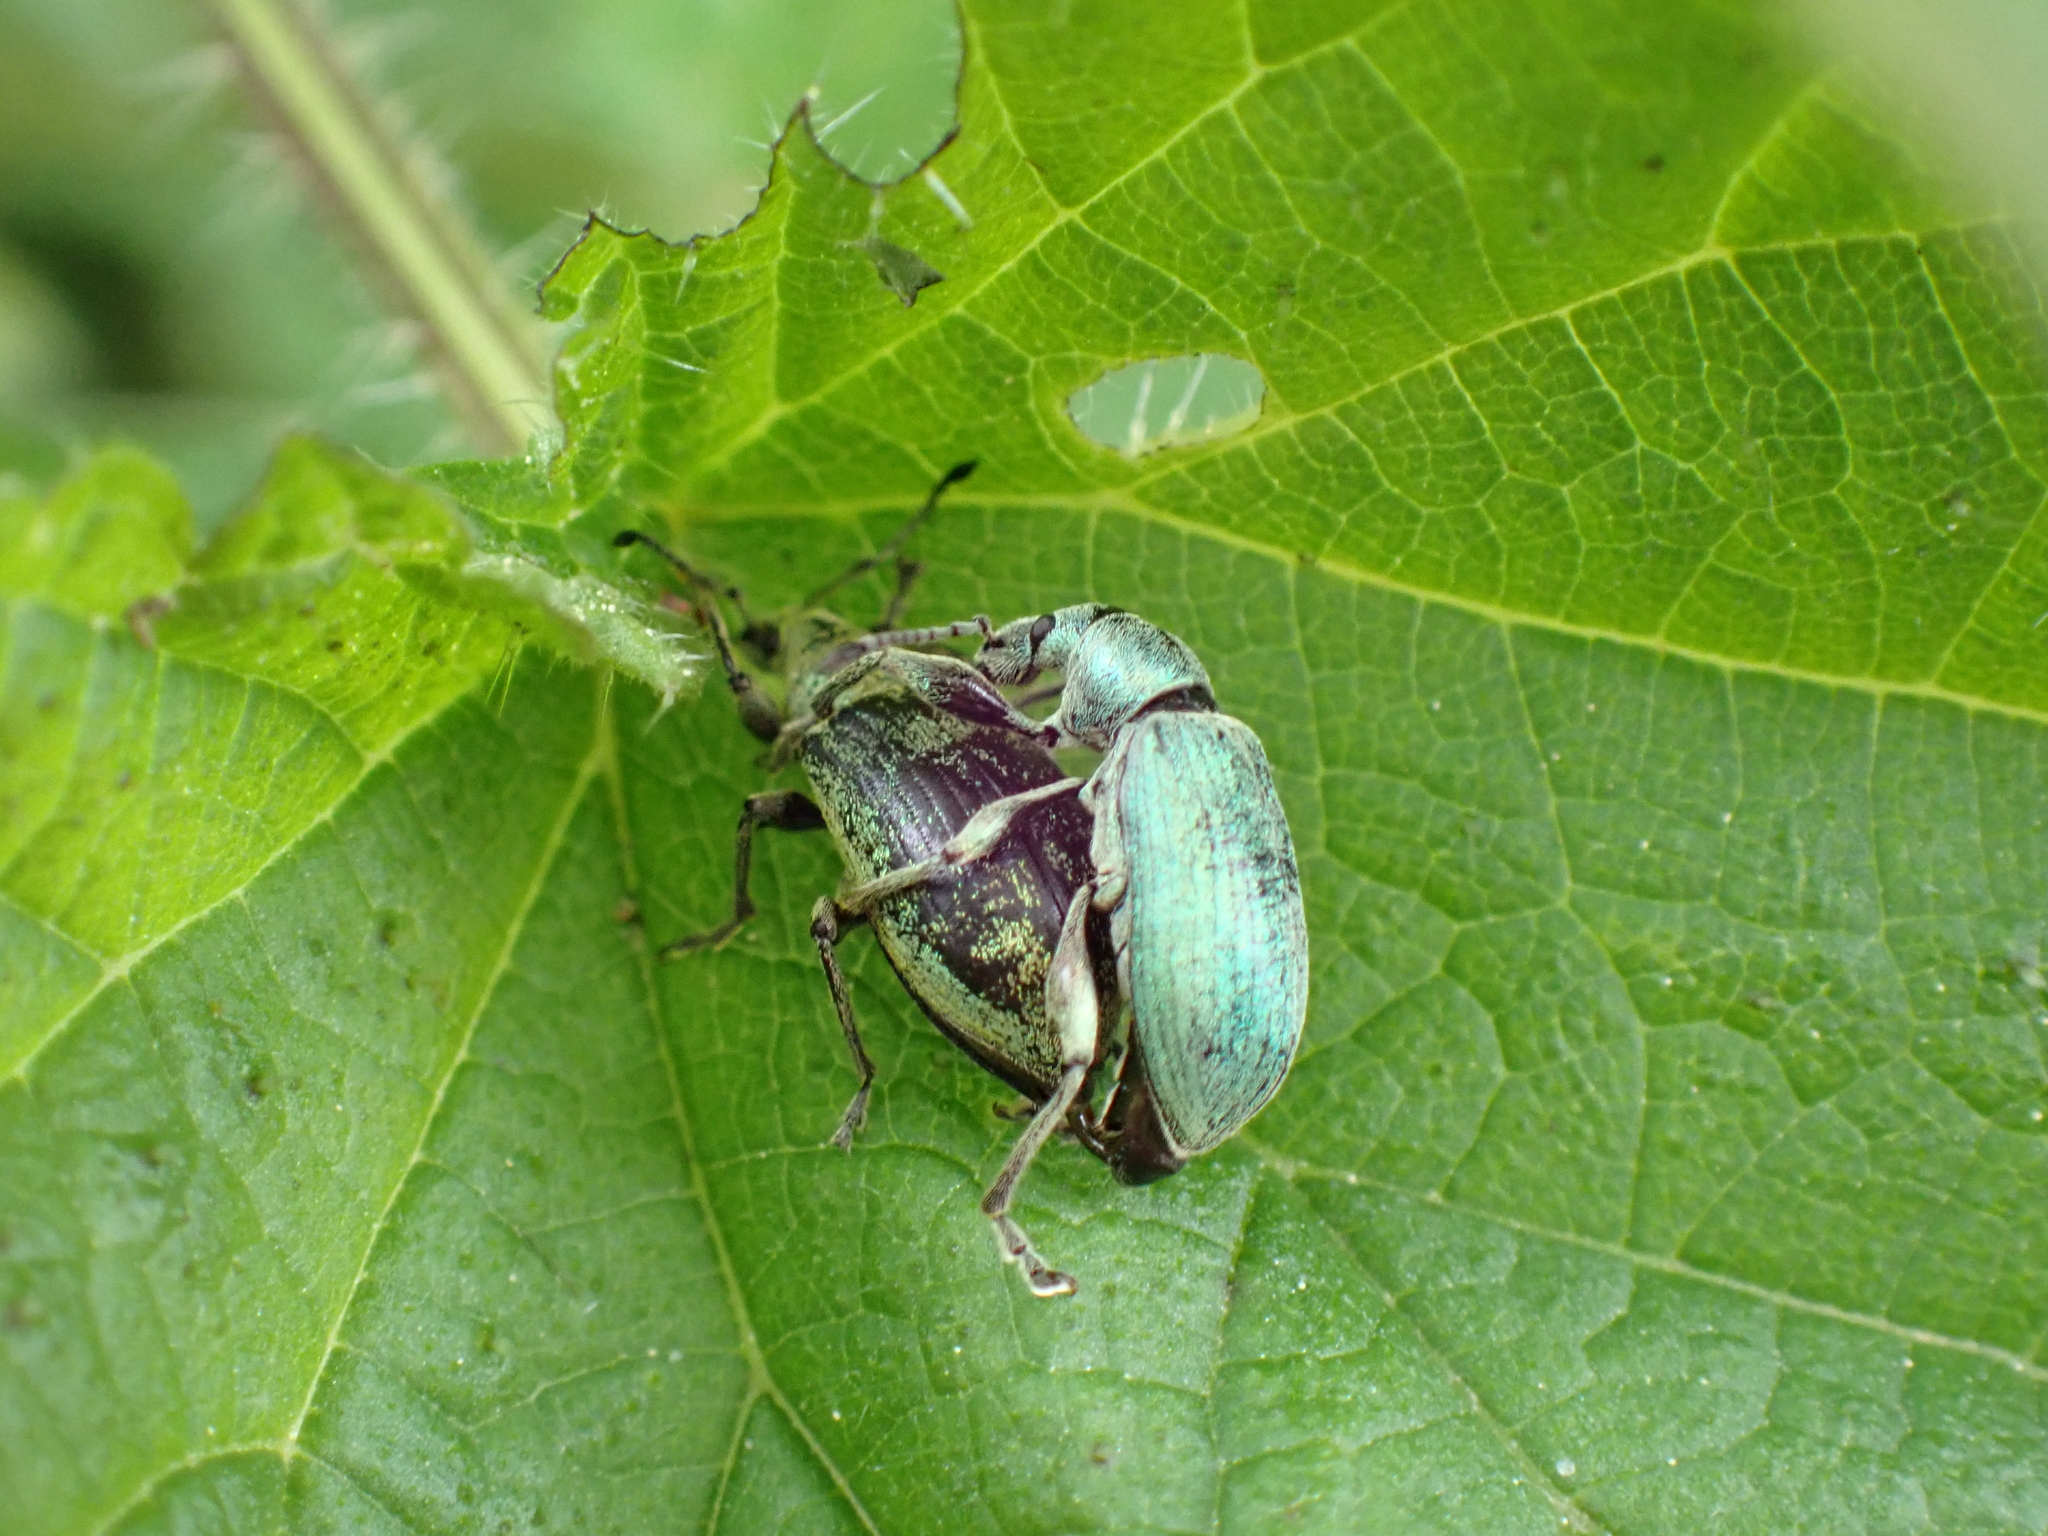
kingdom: Animalia
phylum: Arthropoda
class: Insecta
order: Coleoptera
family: Curculionidae
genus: Phyllobius
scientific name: Phyllobius pomaceus
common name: Green nettle weevil
